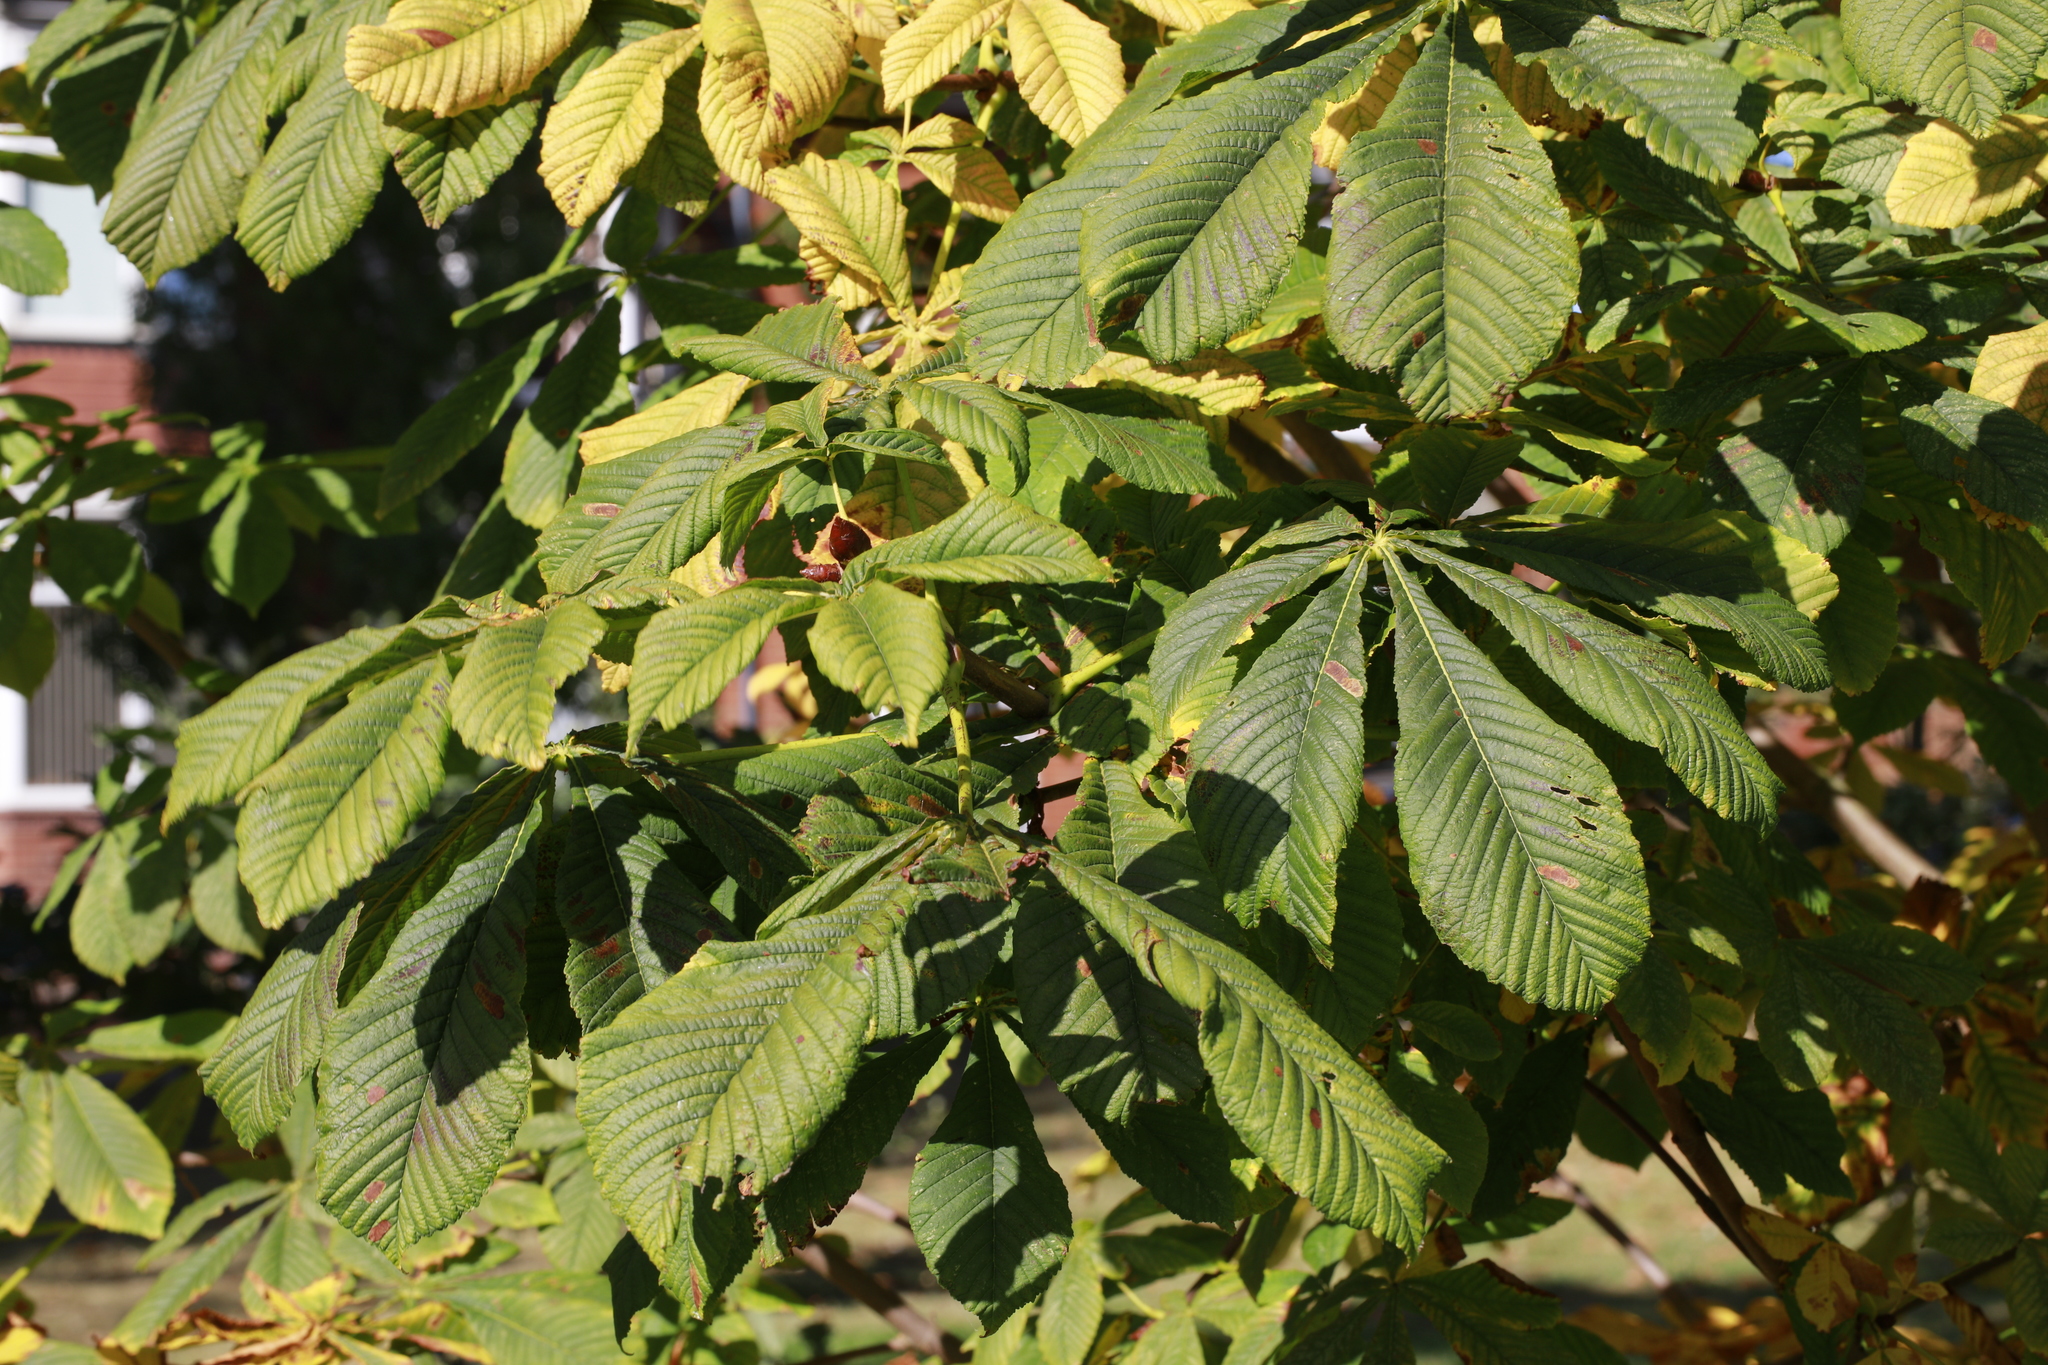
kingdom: Plantae
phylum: Tracheophyta
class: Magnoliopsida
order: Sapindales
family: Sapindaceae
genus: Aesculus
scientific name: Aesculus hippocastanum
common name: Horse-chestnut
